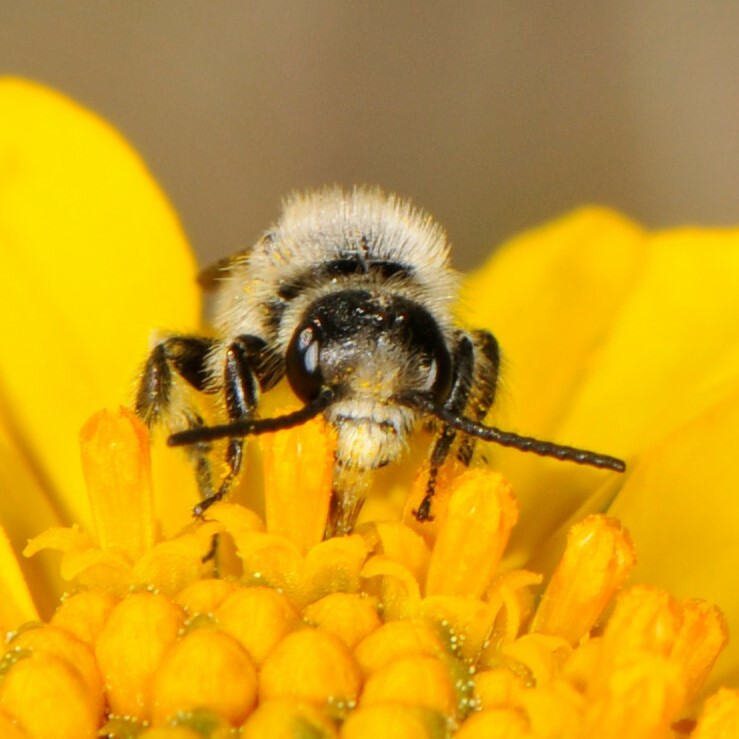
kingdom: Animalia
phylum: Arthropoda
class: Insecta
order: Hymenoptera
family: Halictidae
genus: Dufourea
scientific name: Dufourea
